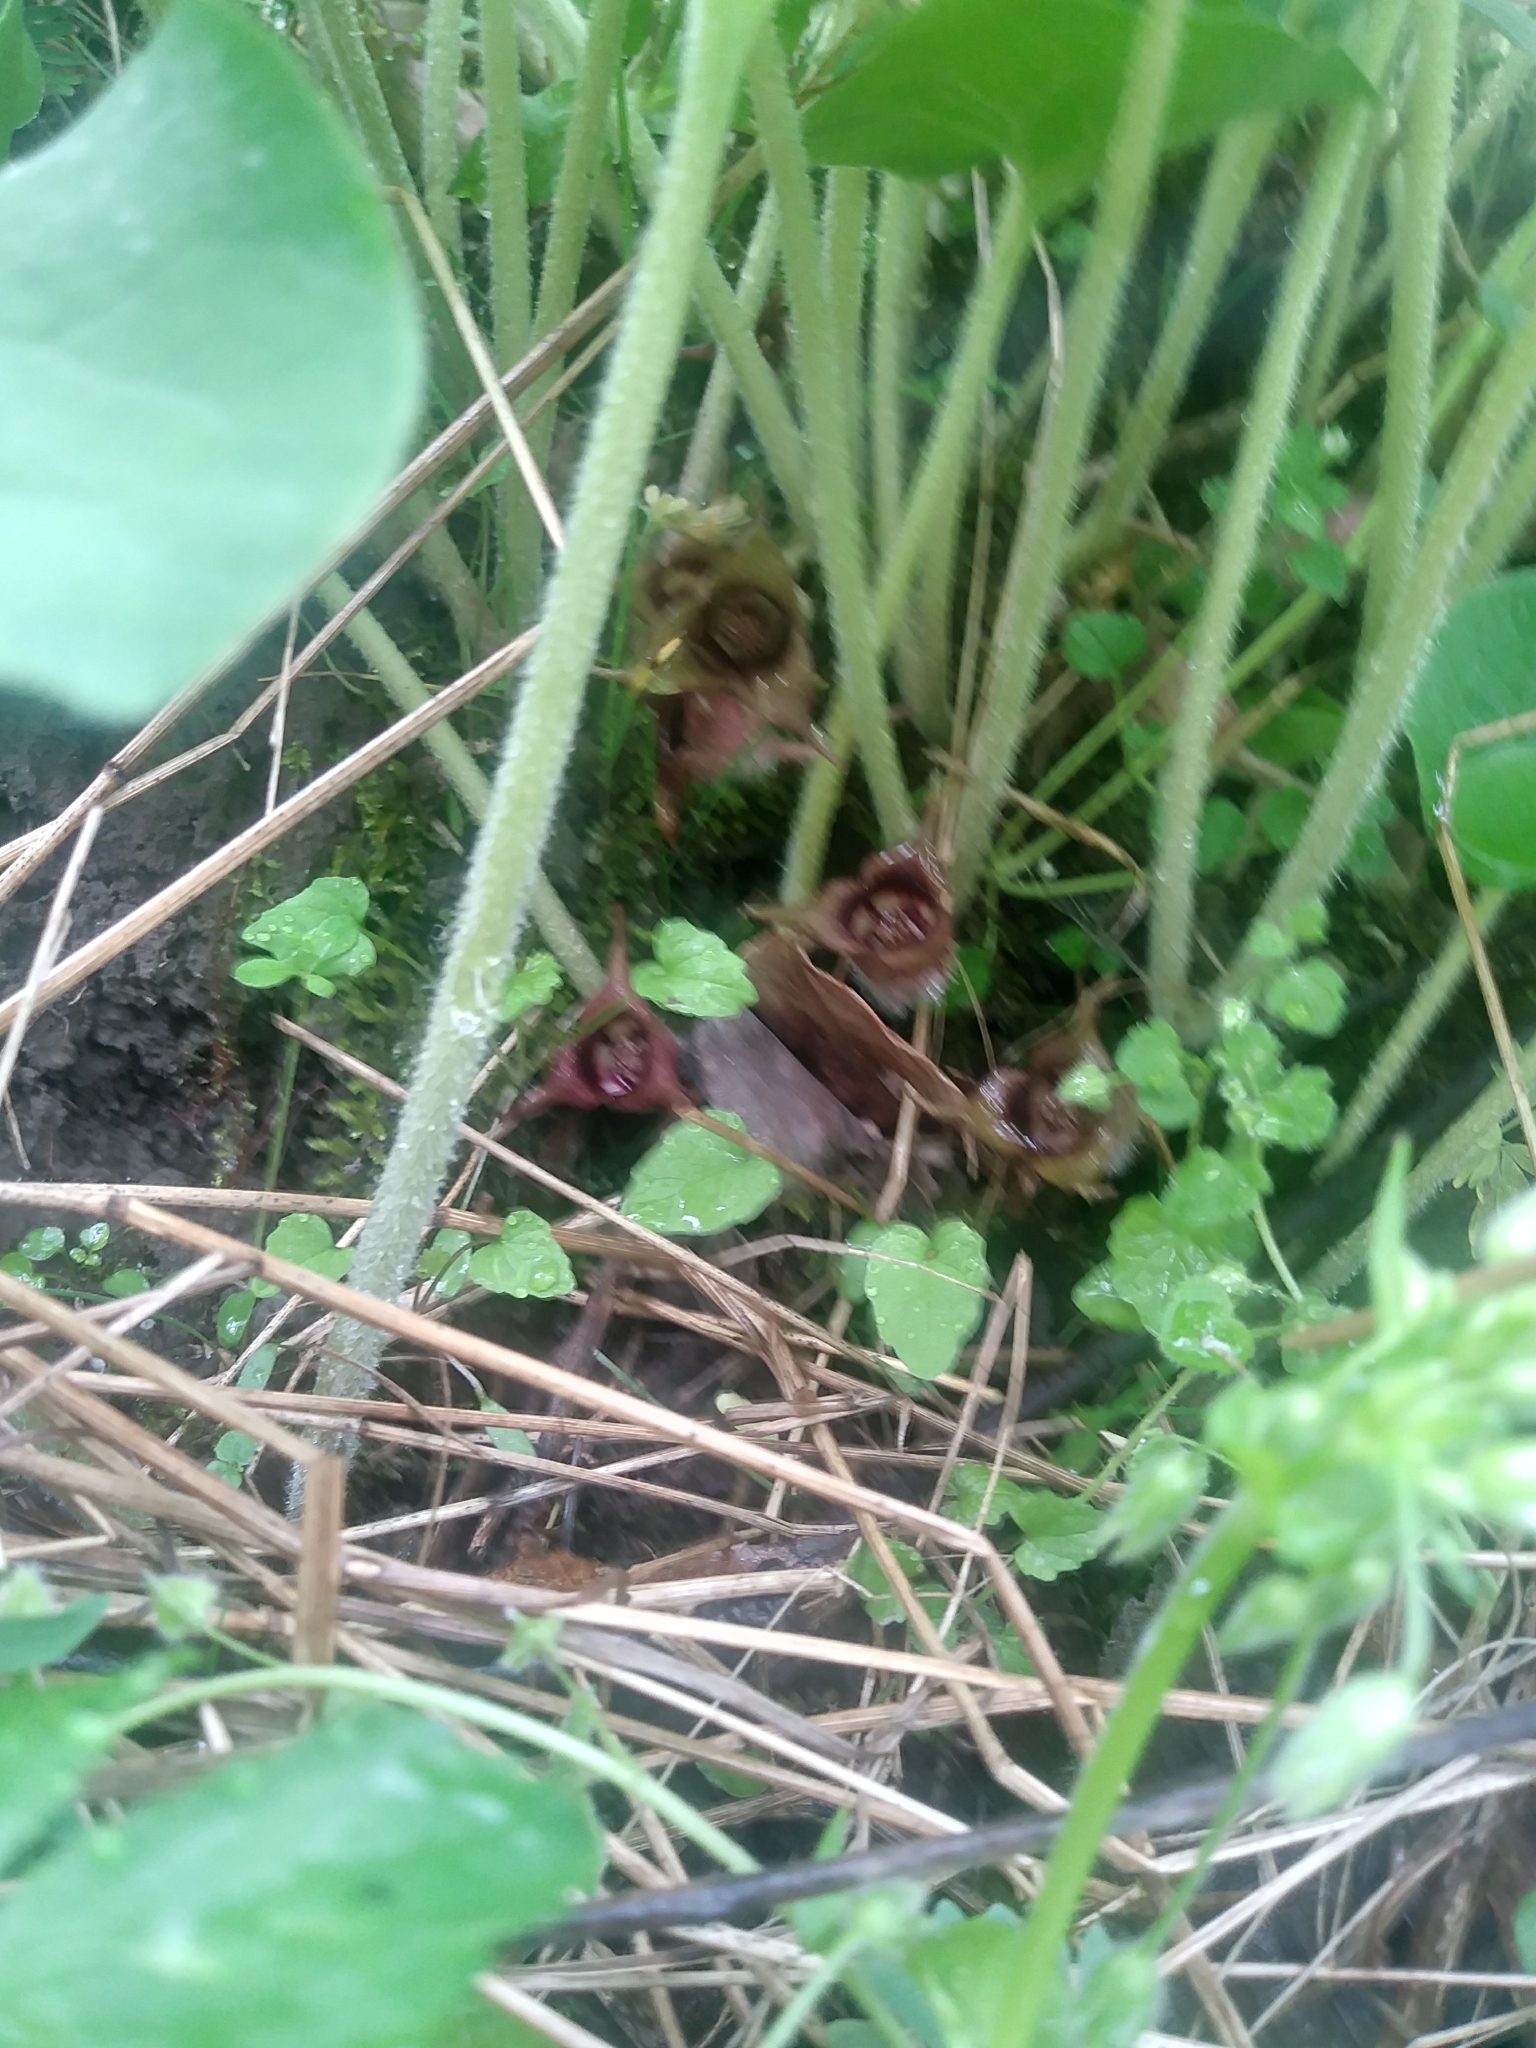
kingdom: Plantae
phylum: Tracheophyta
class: Magnoliopsida
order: Piperales
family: Aristolochiaceae
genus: Asarum
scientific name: Asarum canadense
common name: Wild ginger
